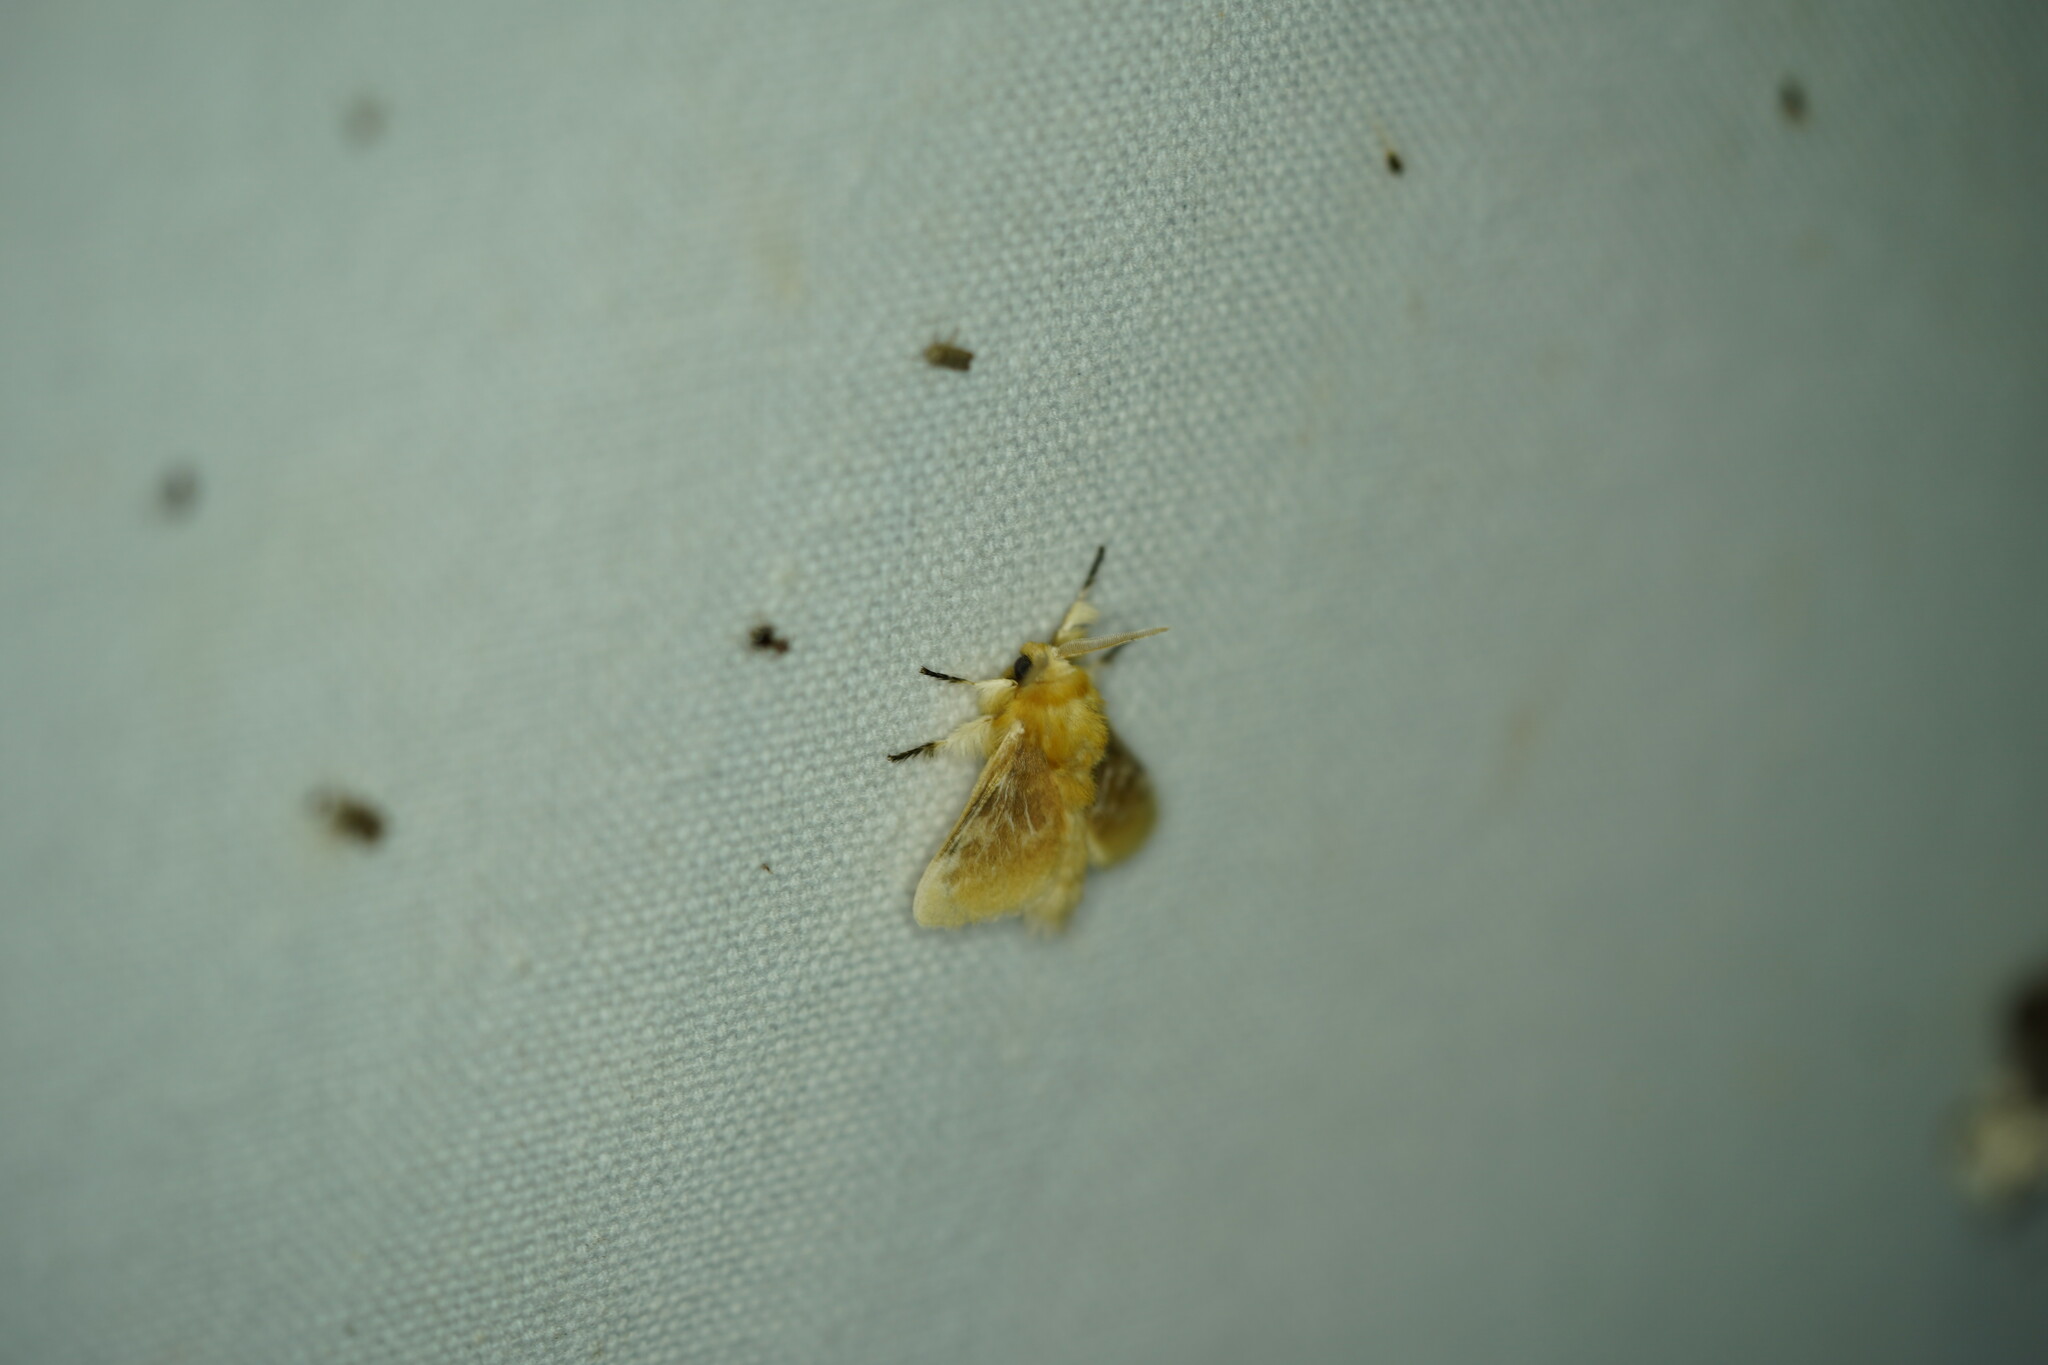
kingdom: Animalia
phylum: Arthropoda
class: Insecta
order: Lepidoptera
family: Megalopygidae
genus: Megalopyge
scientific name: Megalopyge opercularis
